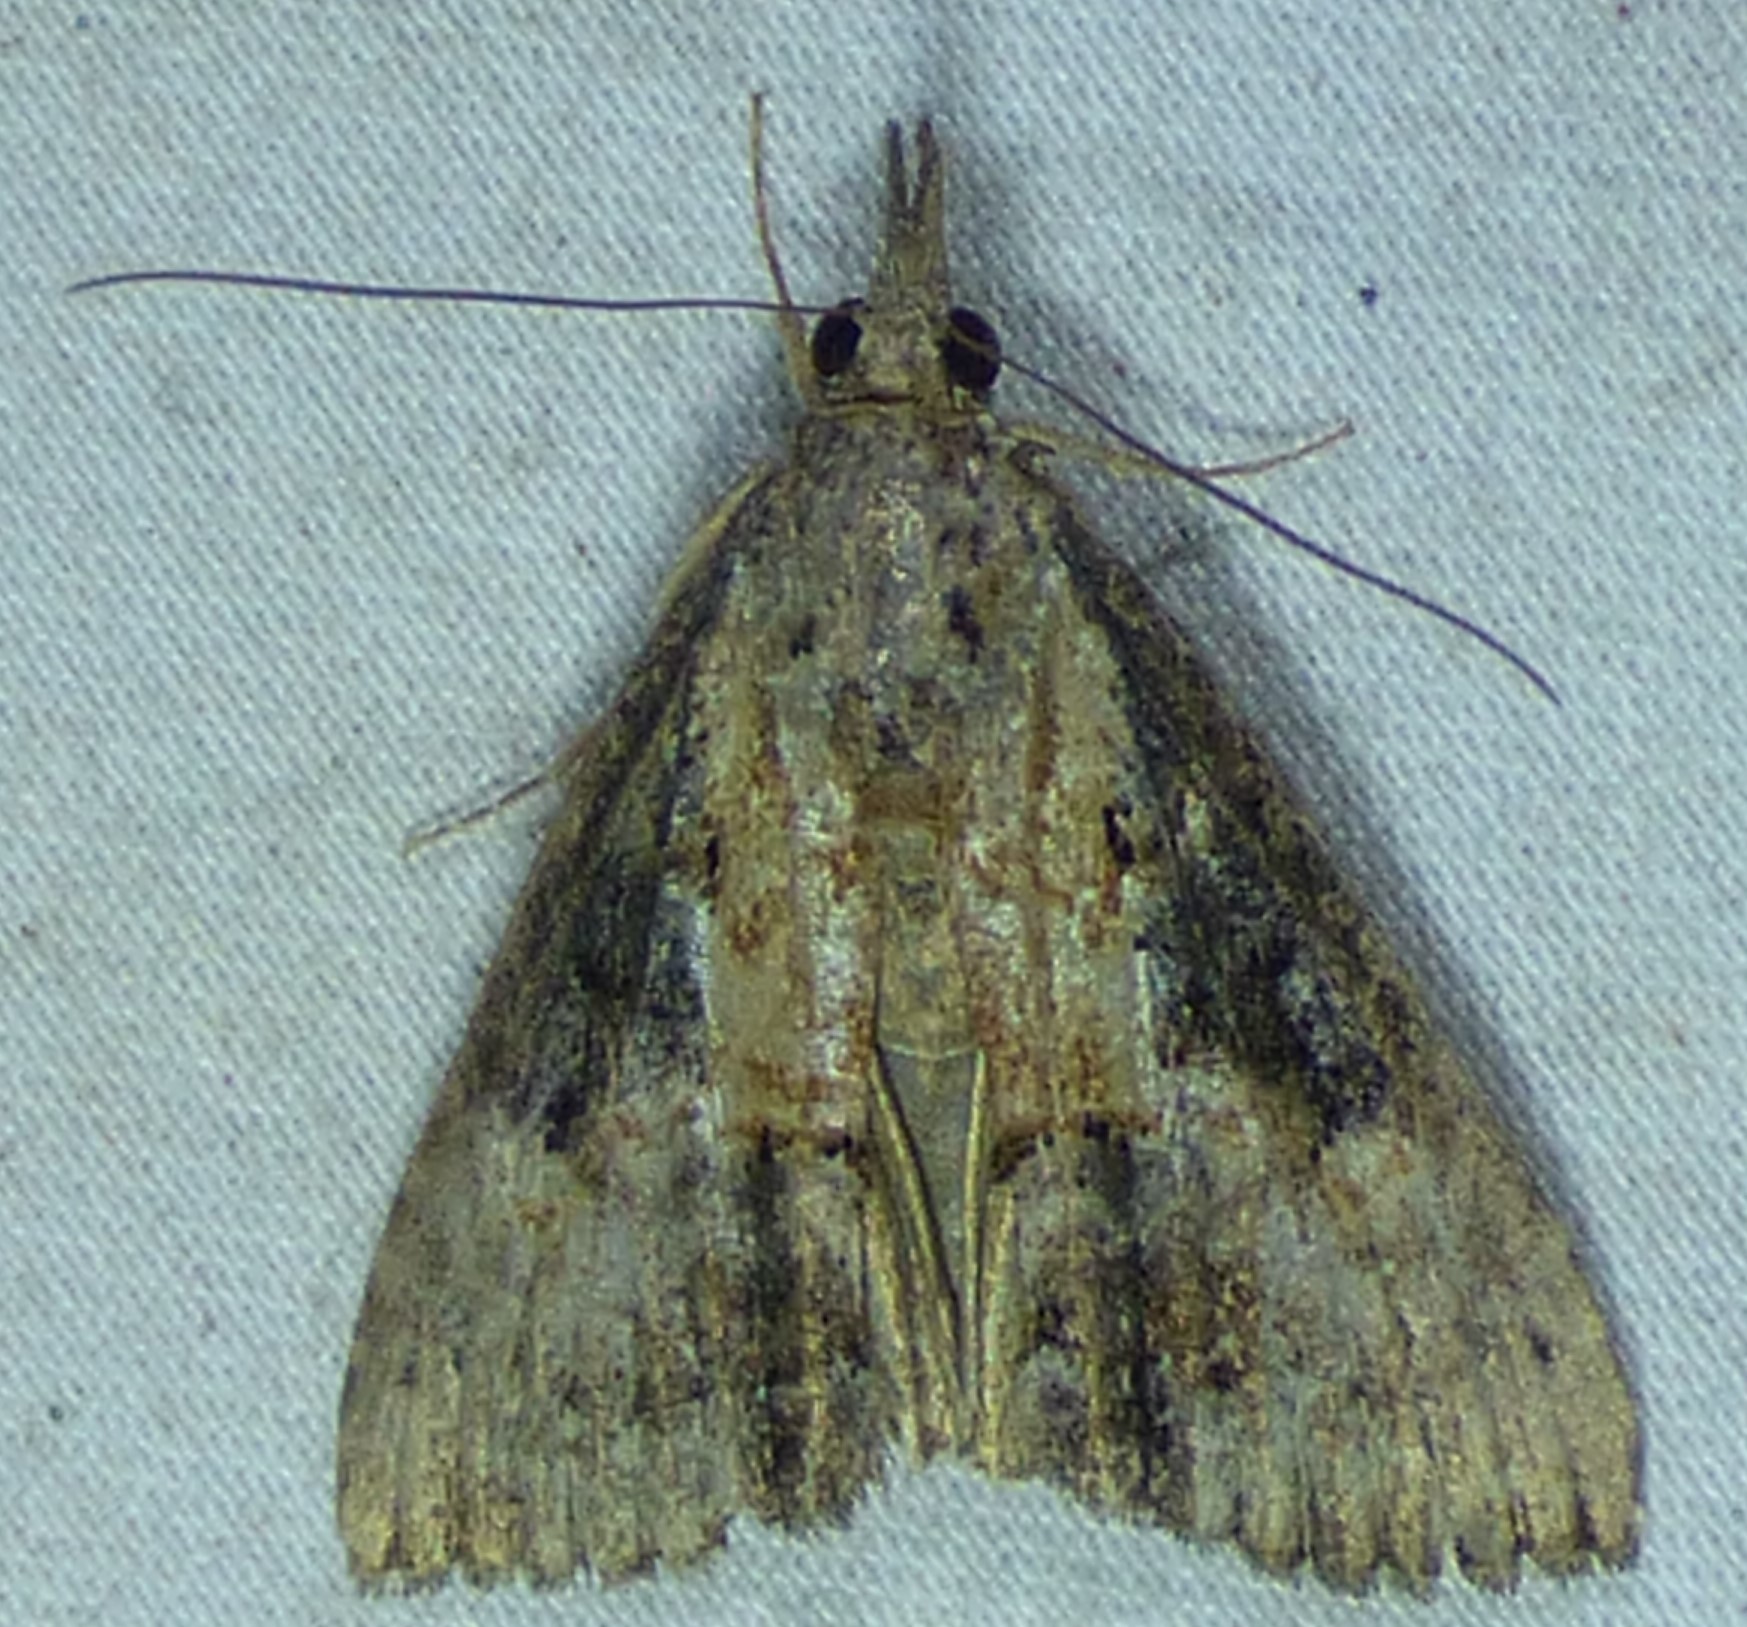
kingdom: Animalia
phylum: Arthropoda
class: Insecta
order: Lepidoptera
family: Erebidae
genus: Hypena
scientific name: Hypena scabra
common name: Green cloverworm
